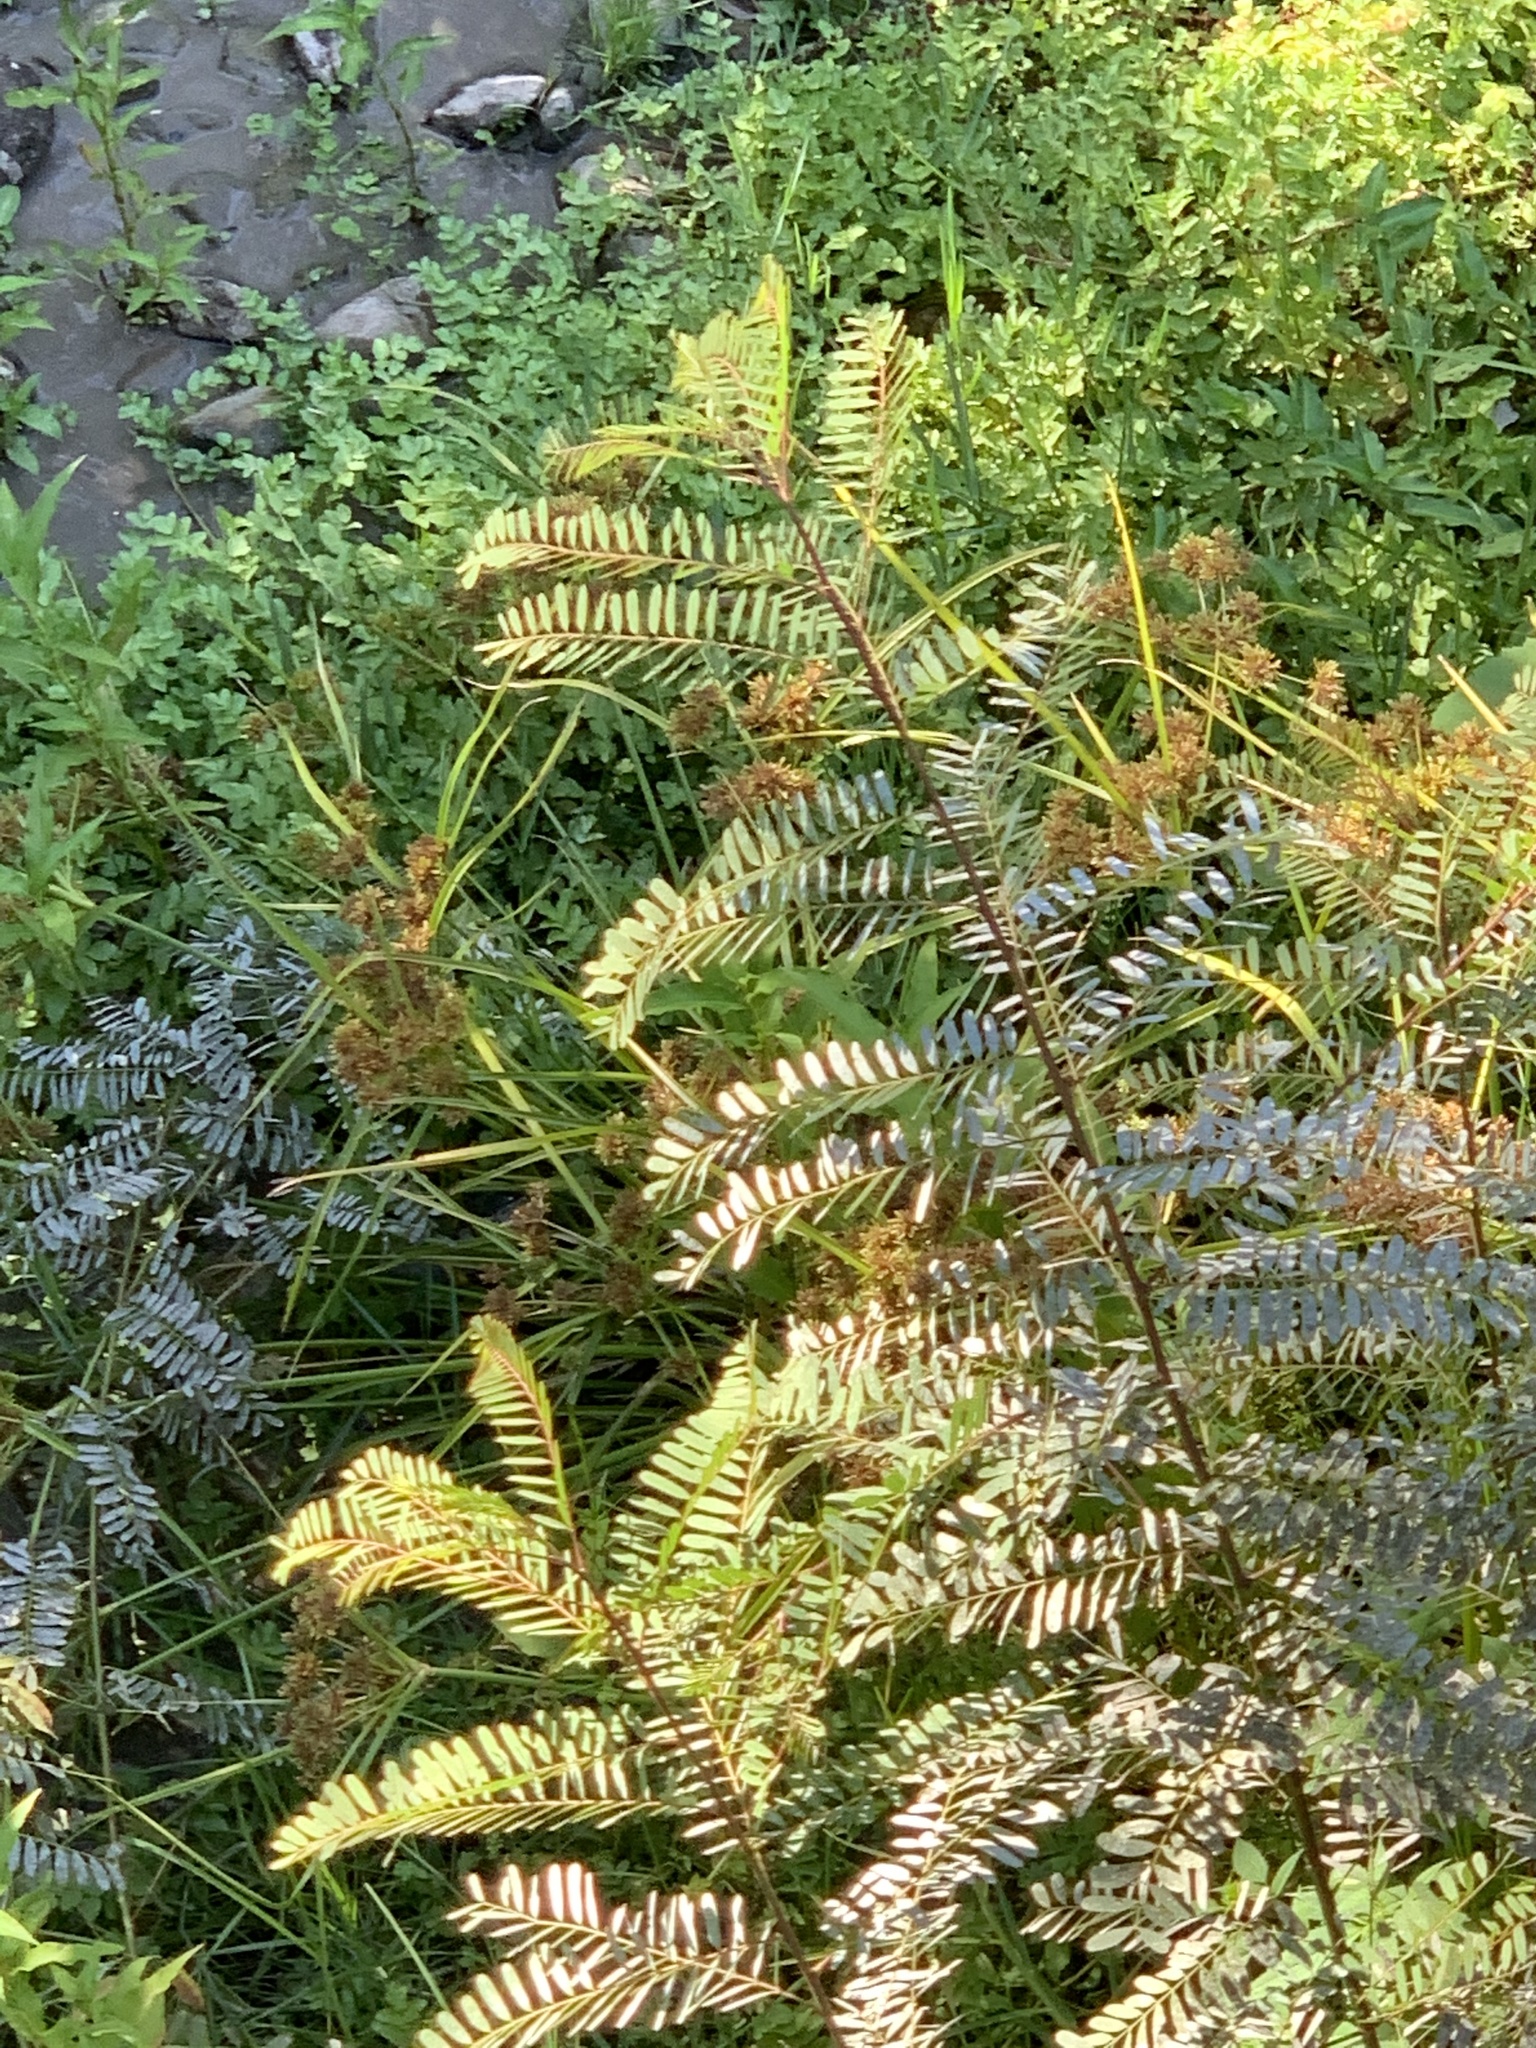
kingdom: Plantae
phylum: Tracheophyta
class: Magnoliopsida
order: Fabales
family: Fabaceae
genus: Sesbania
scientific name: Sesbania punicea
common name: Rattlebox
